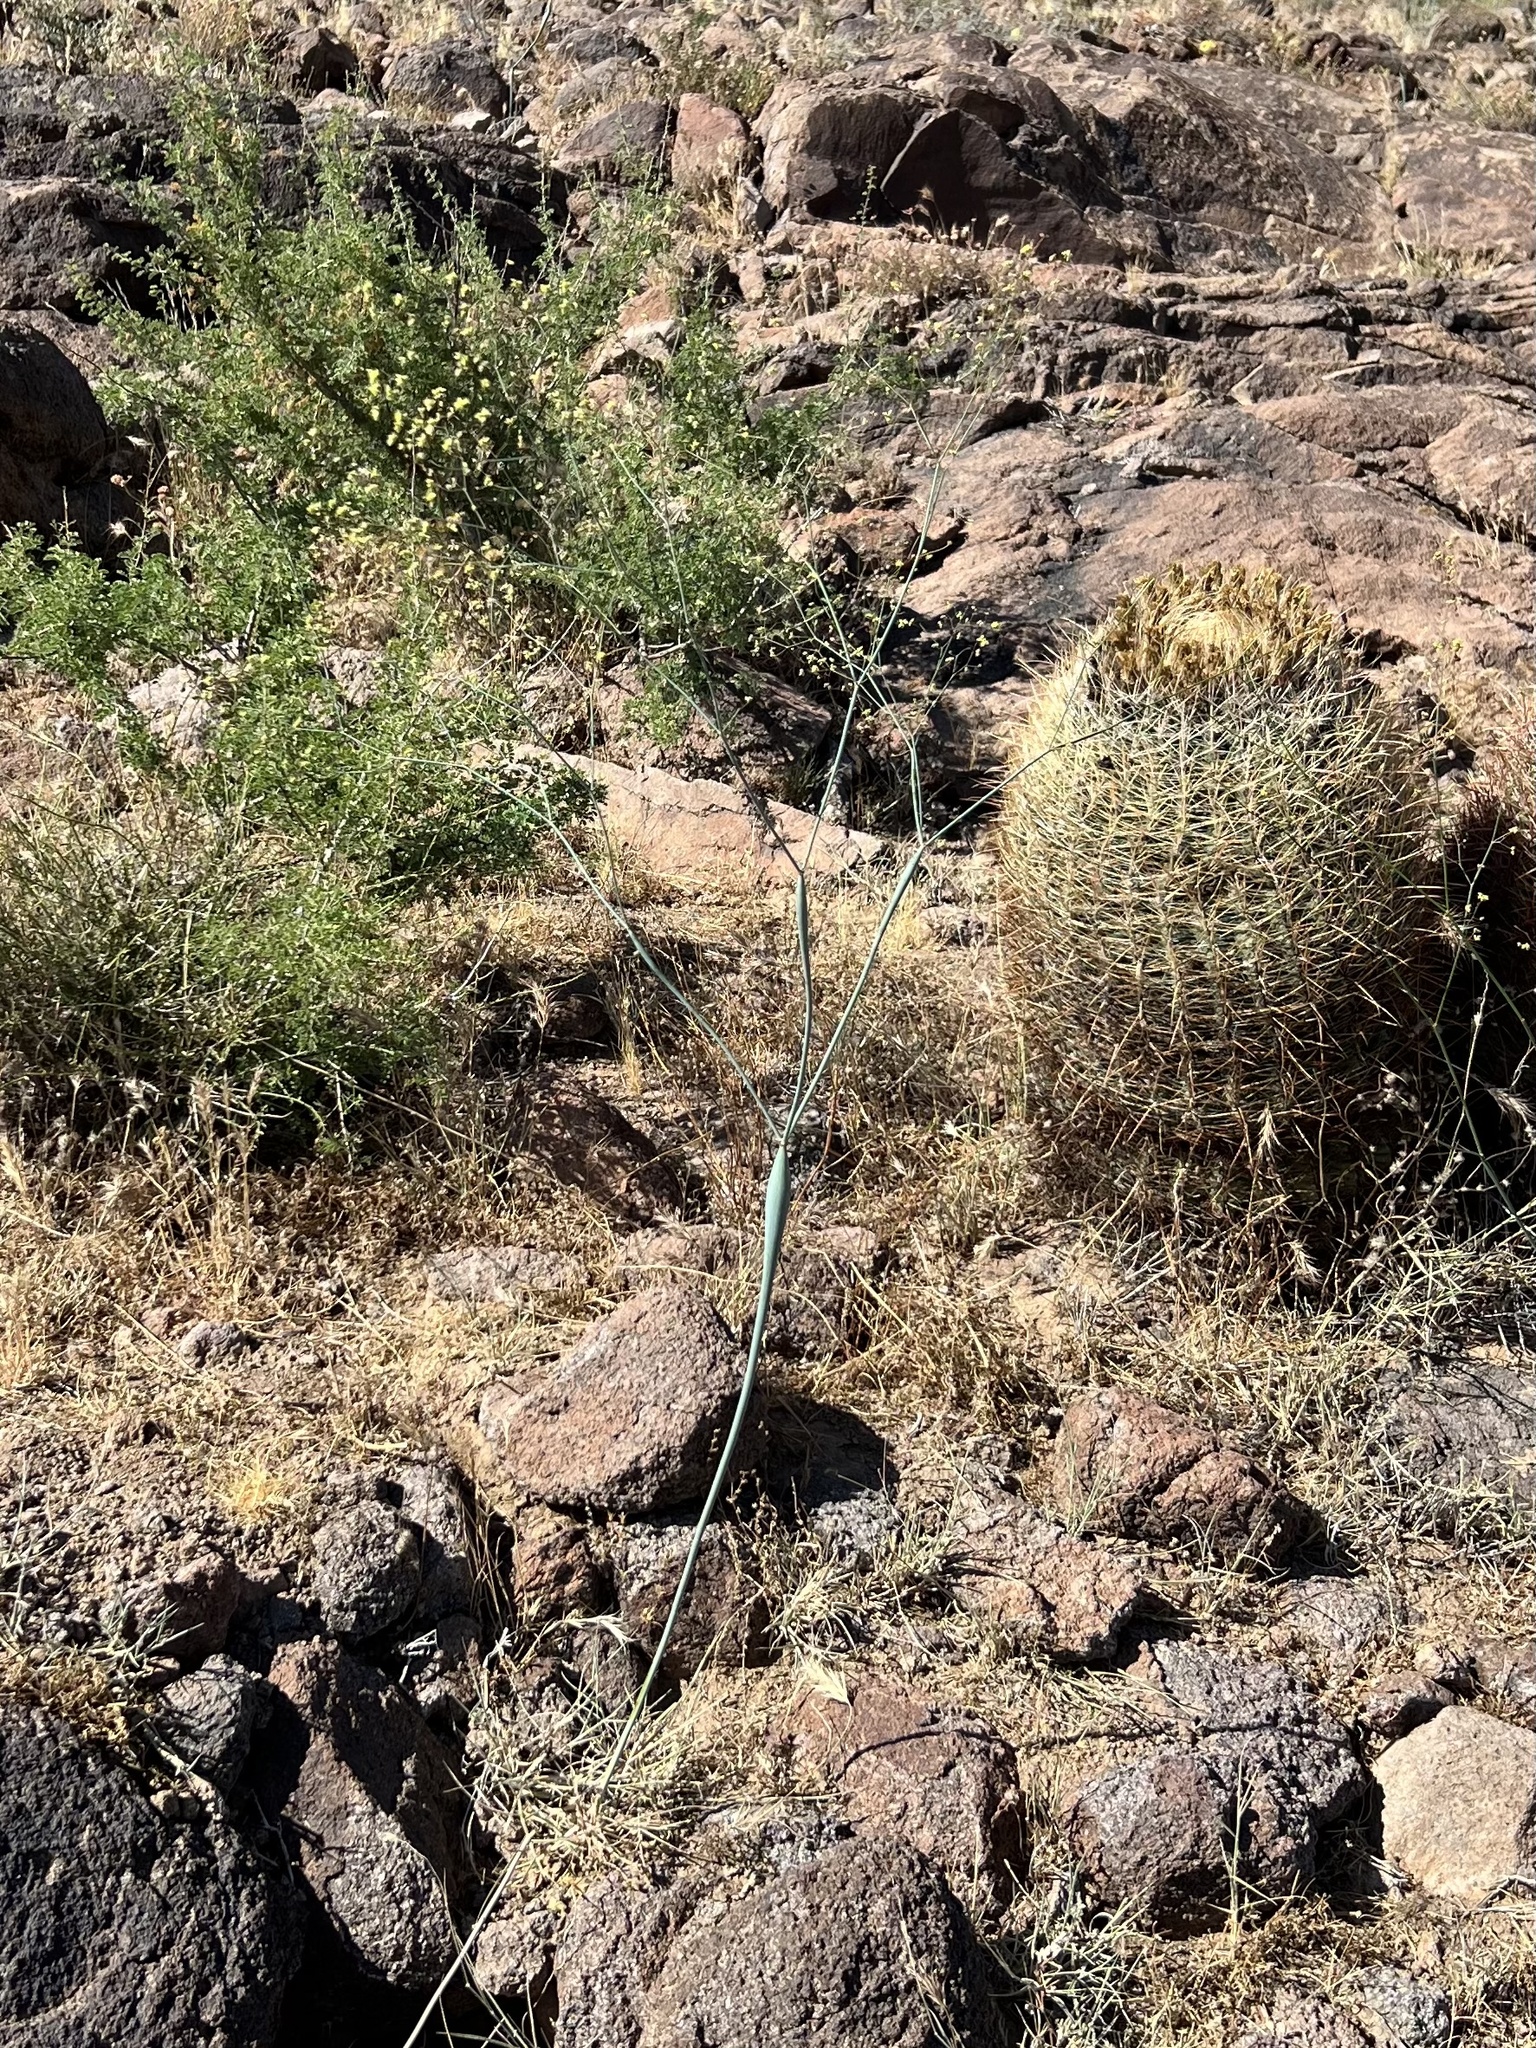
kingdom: Plantae
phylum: Tracheophyta
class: Magnoliopsida
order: Caryophyllales
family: Polygonaceae
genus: Eriogonum
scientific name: Eriogonum inflatum
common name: Desert trumpet
